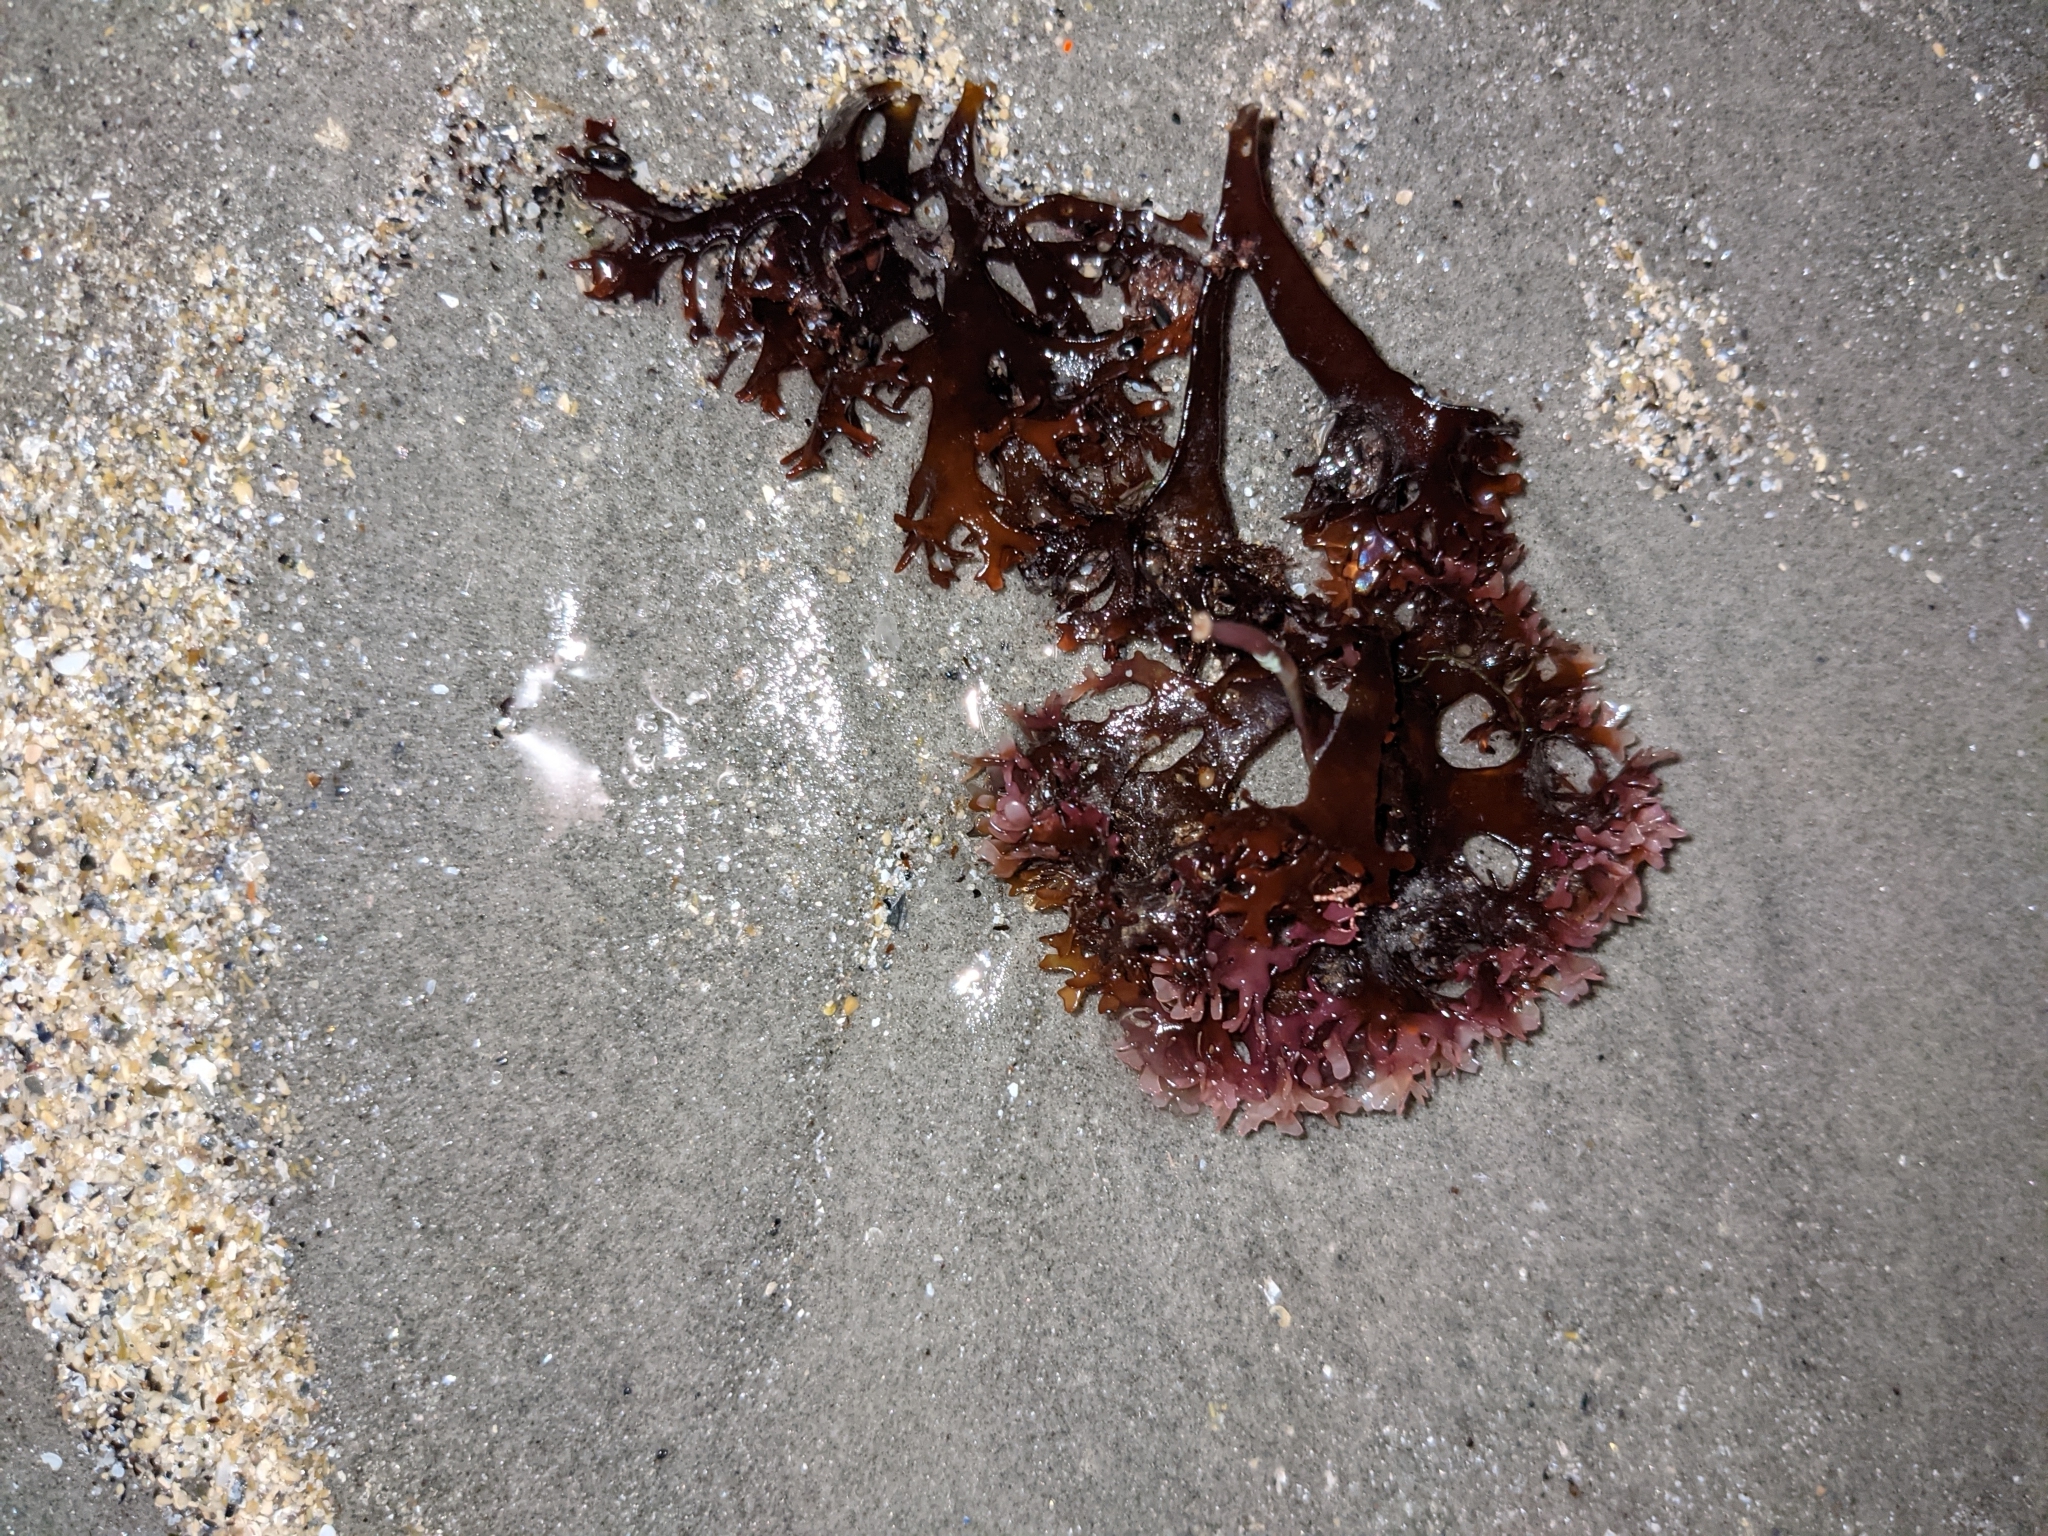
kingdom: Plantae
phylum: Rhodophyta
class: Florideophyceae
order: Gigartinales
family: Gigartinaceae
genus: Chondrus
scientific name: Chondrus crispus
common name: Carrageen
